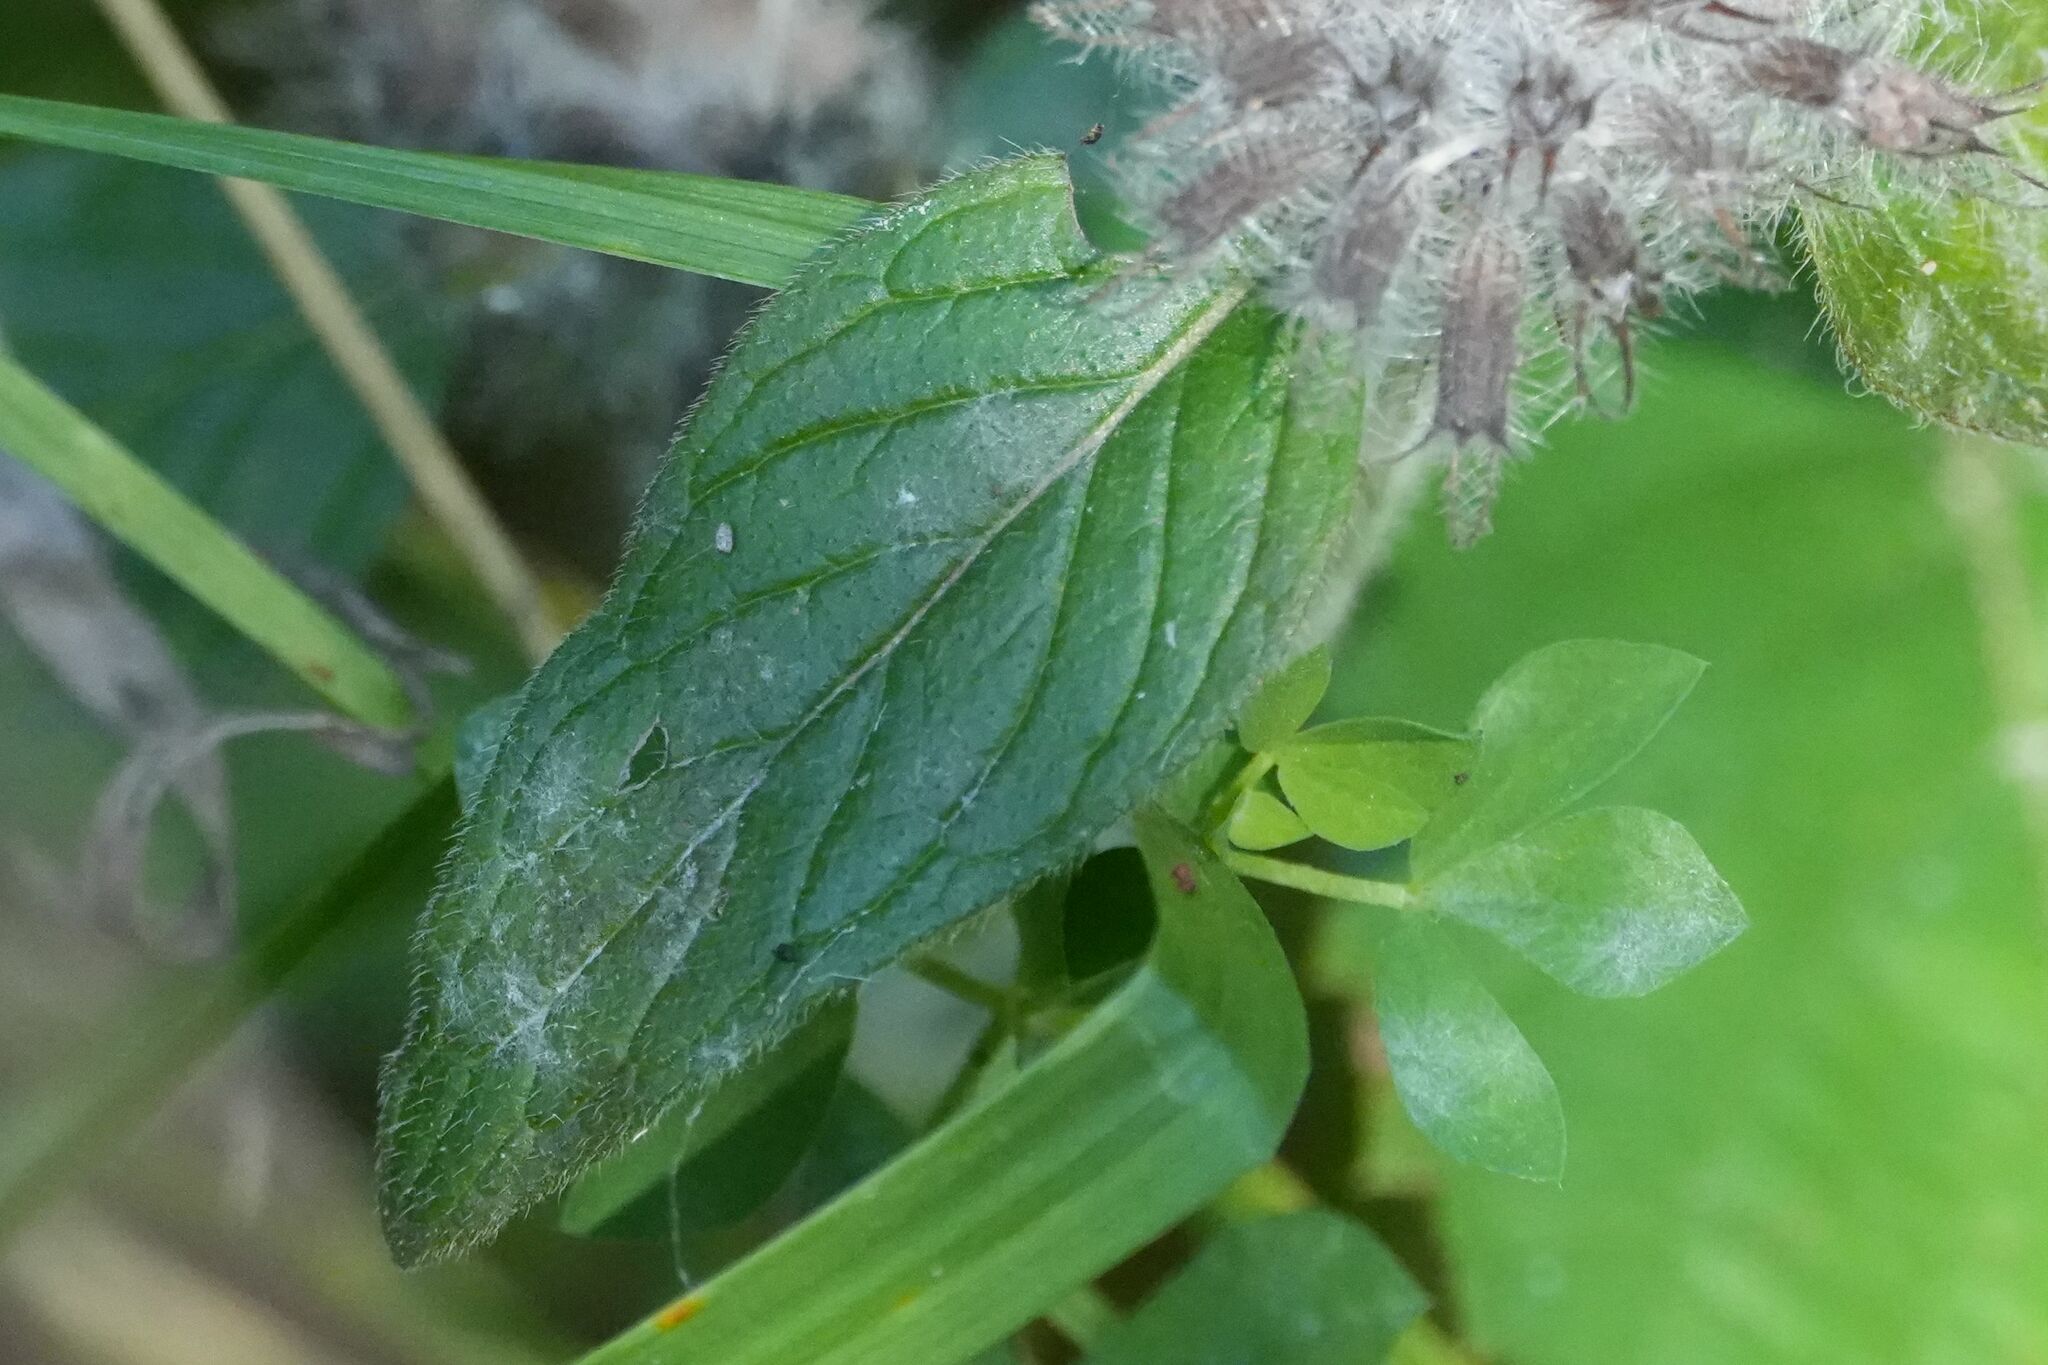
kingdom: Plantae
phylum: Tracheophyta
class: Magnoliopsida
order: Lamiales
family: Lamiaceae
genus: Clinopodium
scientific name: Clinopodium vulgare
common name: Wild basil
